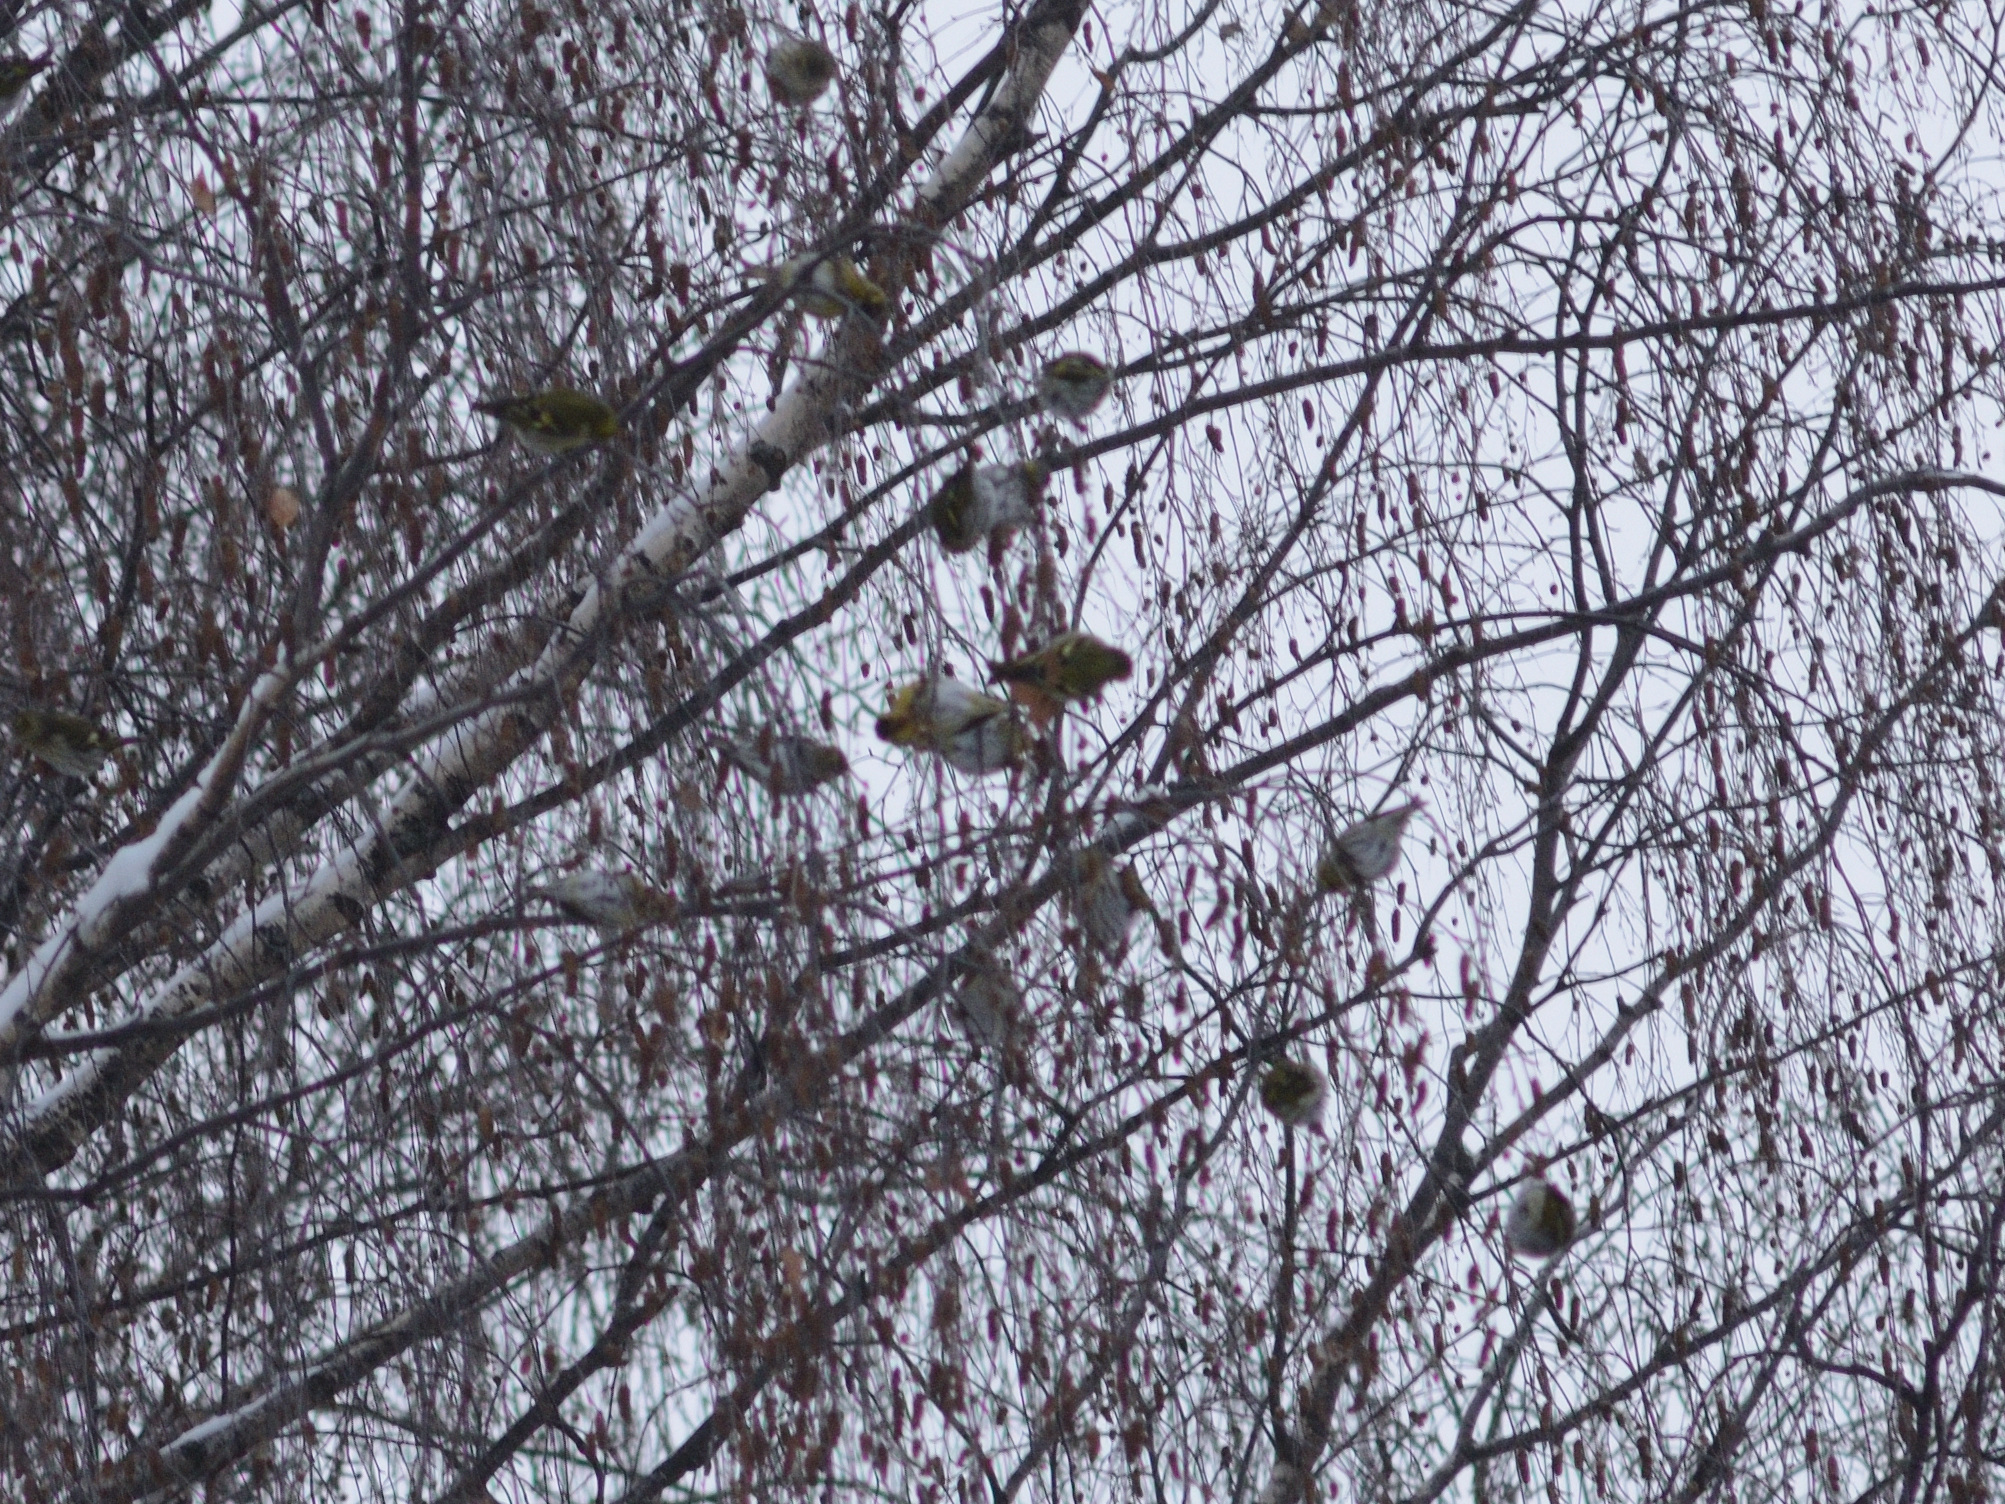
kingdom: Animalia
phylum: Chordata
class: Aves
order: Passeriformes
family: Fringillidae
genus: Spinus
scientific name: Spinus spinus
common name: Eurasian siskin
